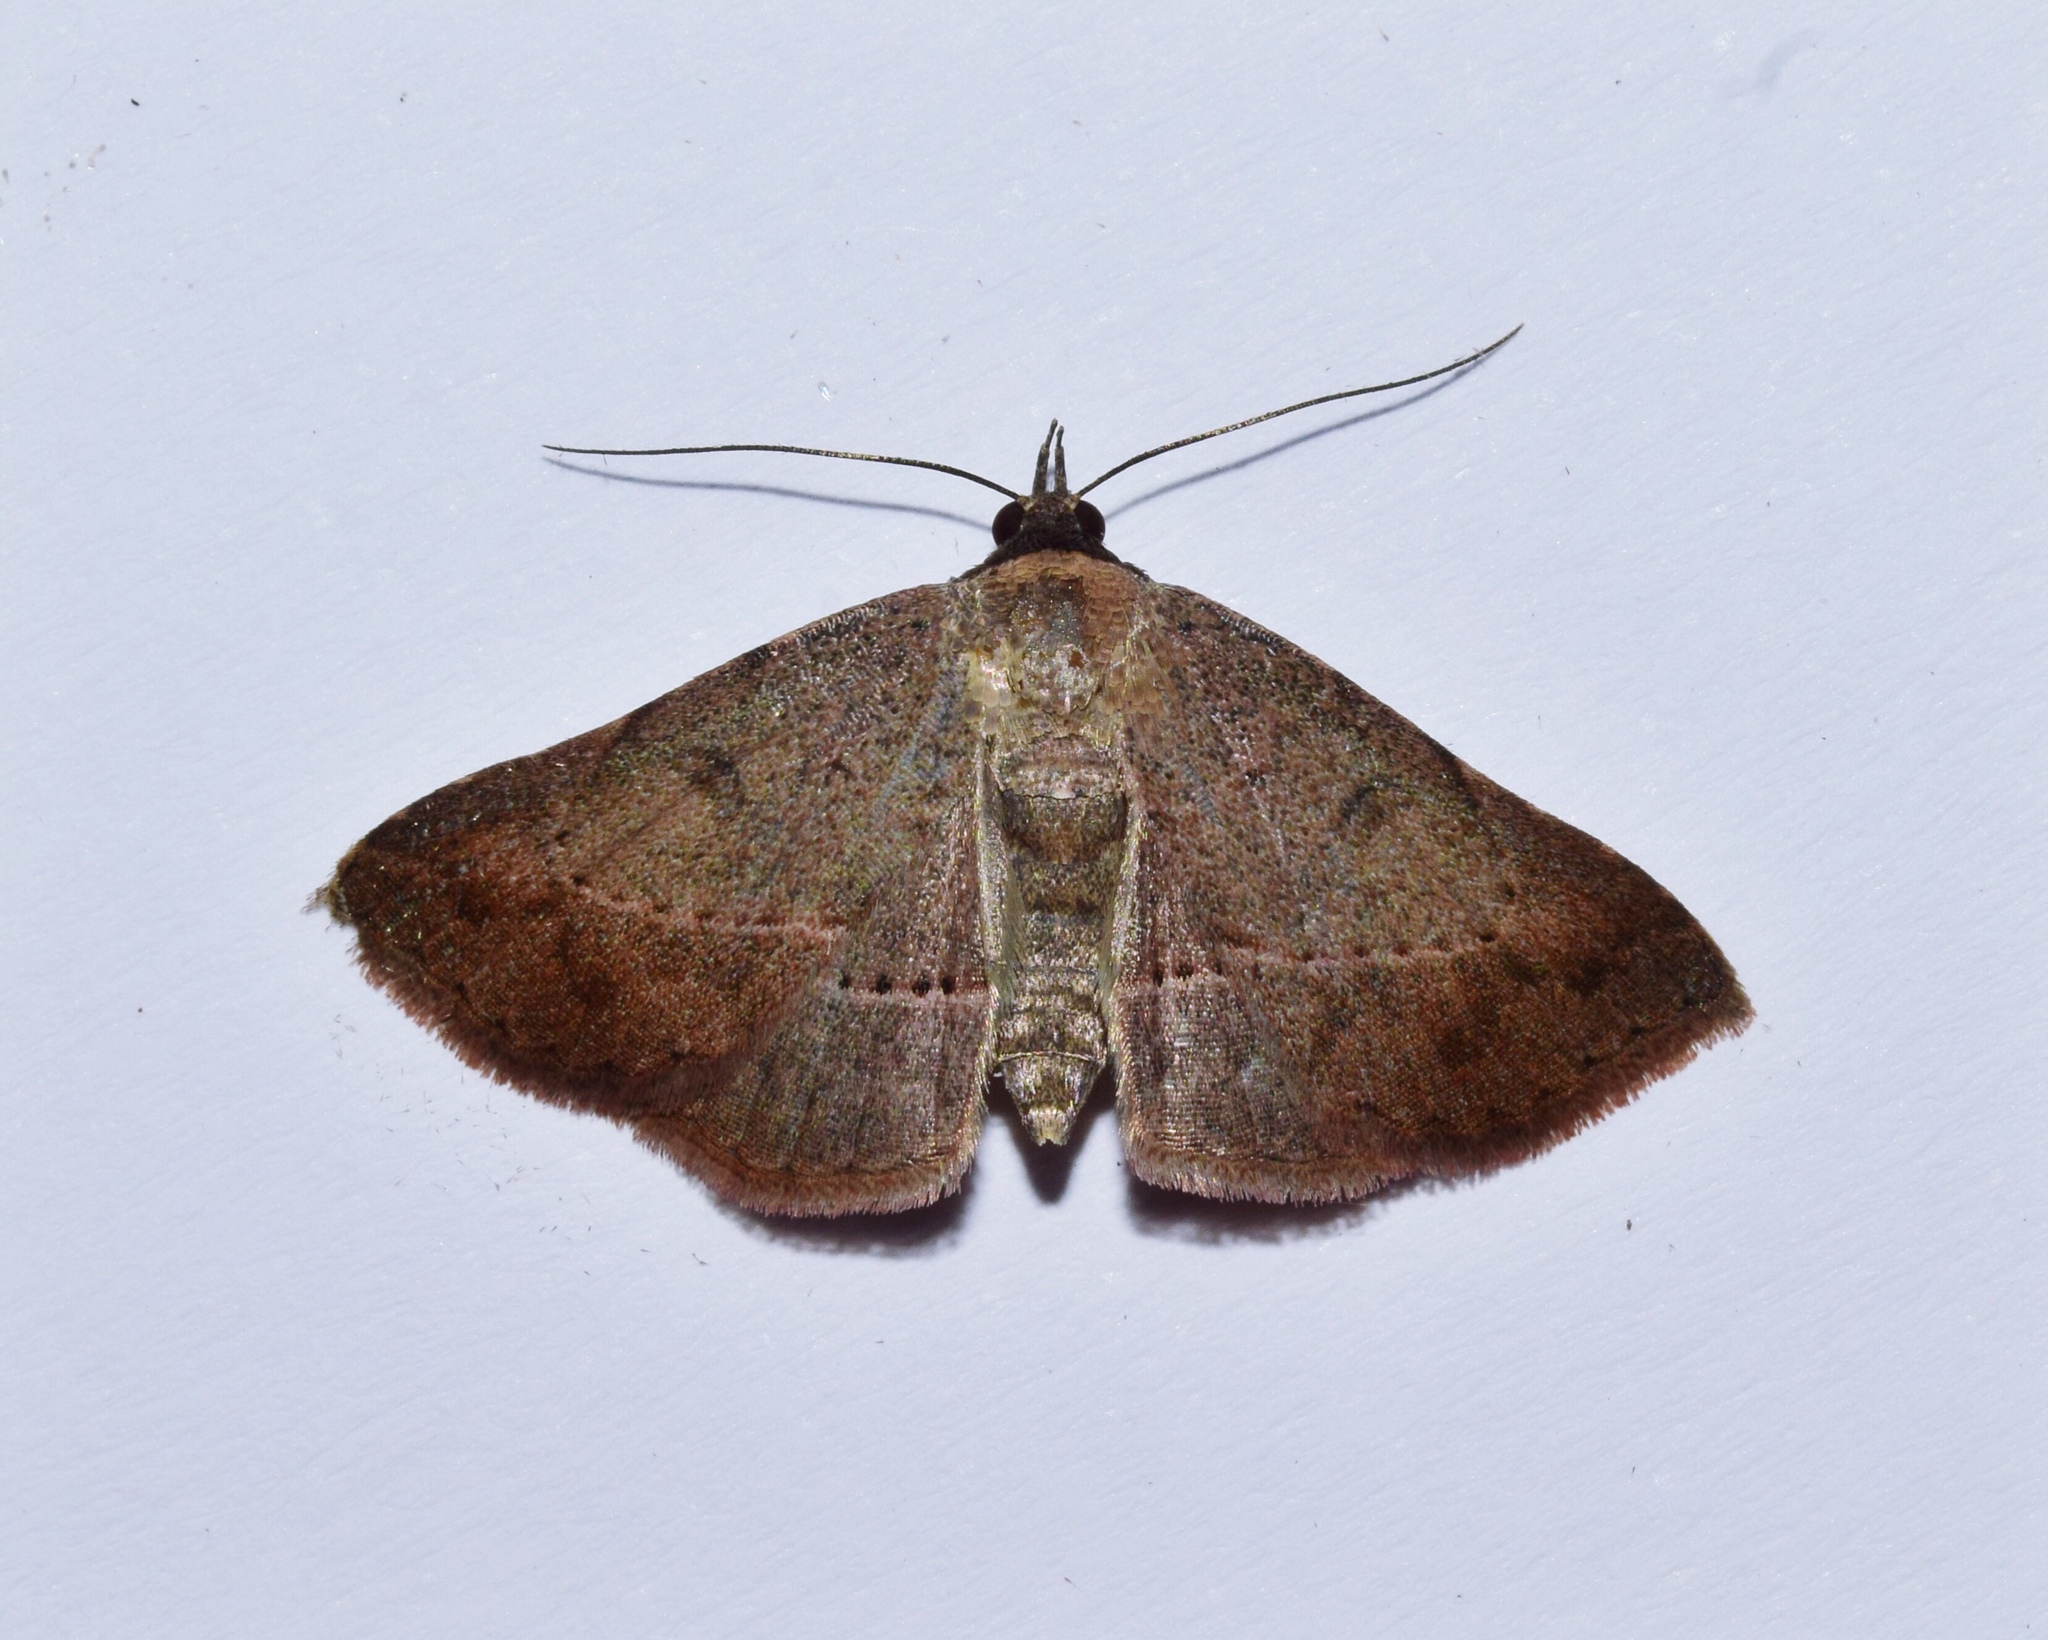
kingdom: Animalia
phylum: Arthropoda
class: Insecta
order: Lepidoptera
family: Erebidae
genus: Maxera
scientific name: Maxera zygia
